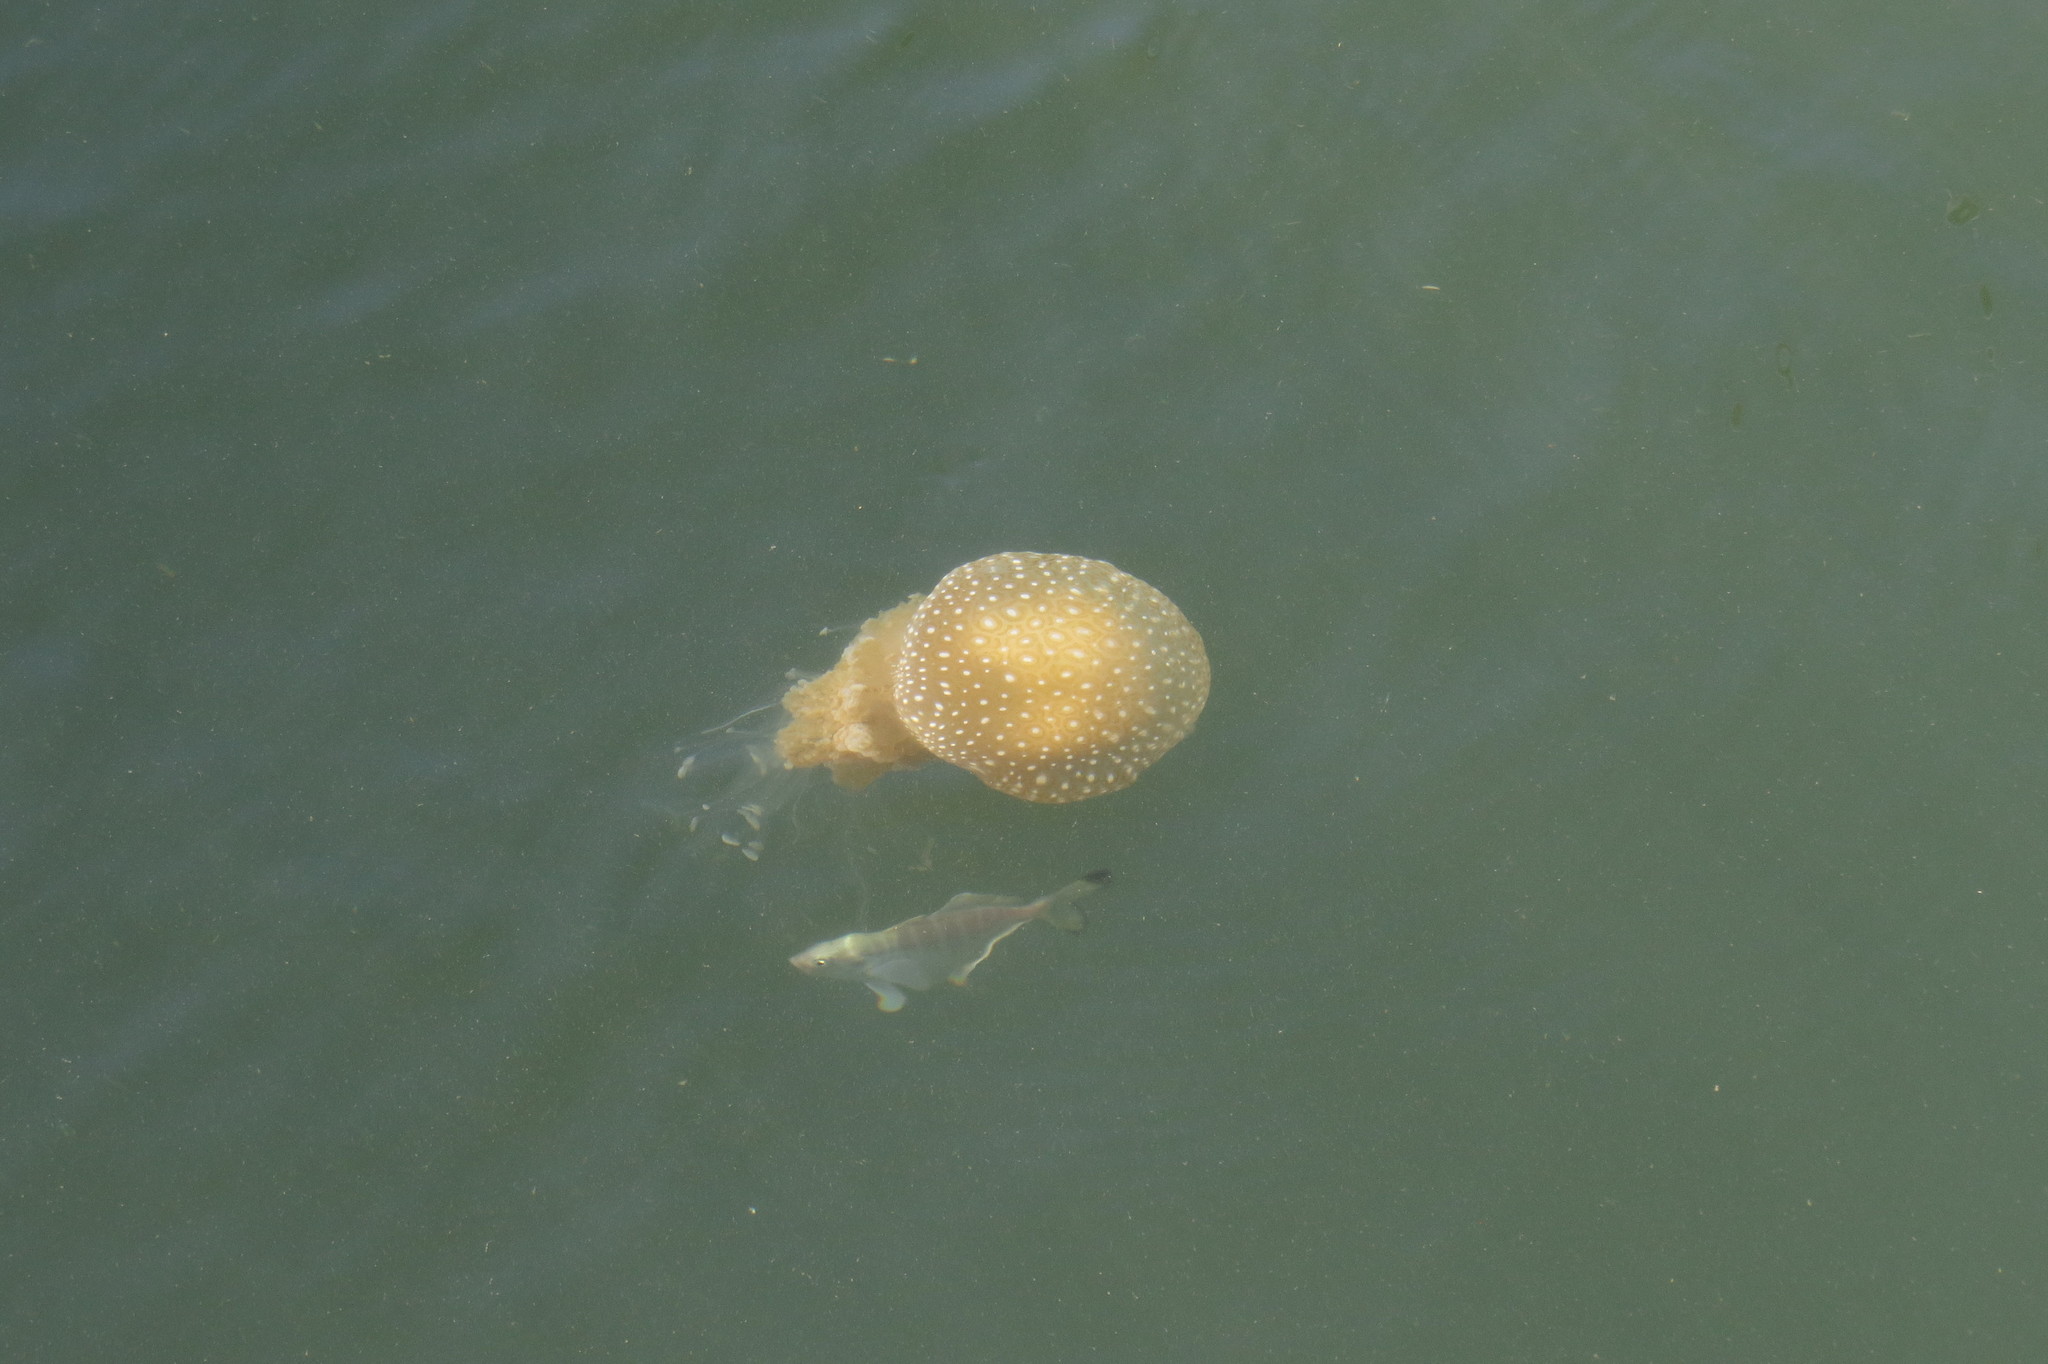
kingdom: Animalia
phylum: Cnidaria
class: Scyphozoa
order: Rhizostomeae
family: Mastigiidae
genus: Phyllorhiza
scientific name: Phyllorhiza punctata
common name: Australian spotted jellyfish
